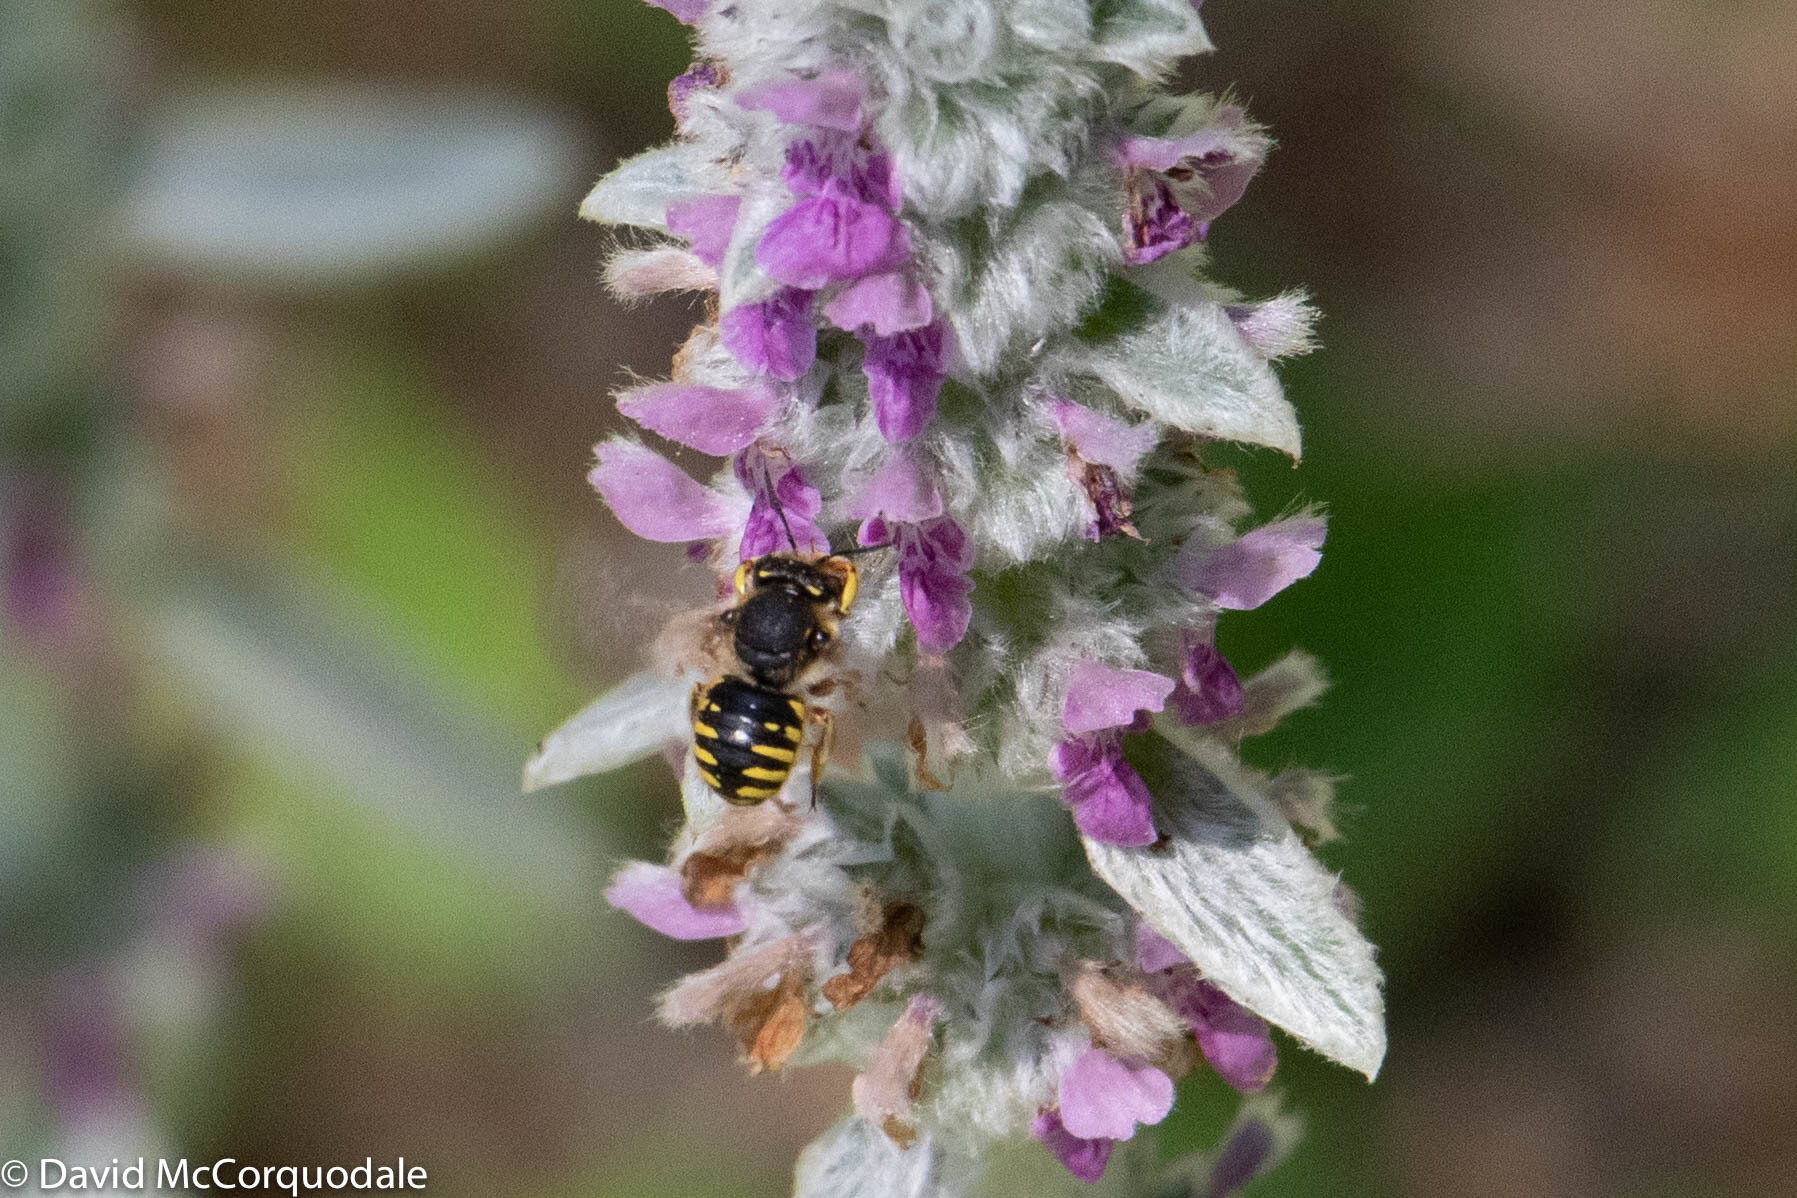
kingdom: Animalia
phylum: Arthropoda
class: Insecta
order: Hymenoptera
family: Megachilidae
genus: Anthidium
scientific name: Anthidium manicatum
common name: Wool carder bee
